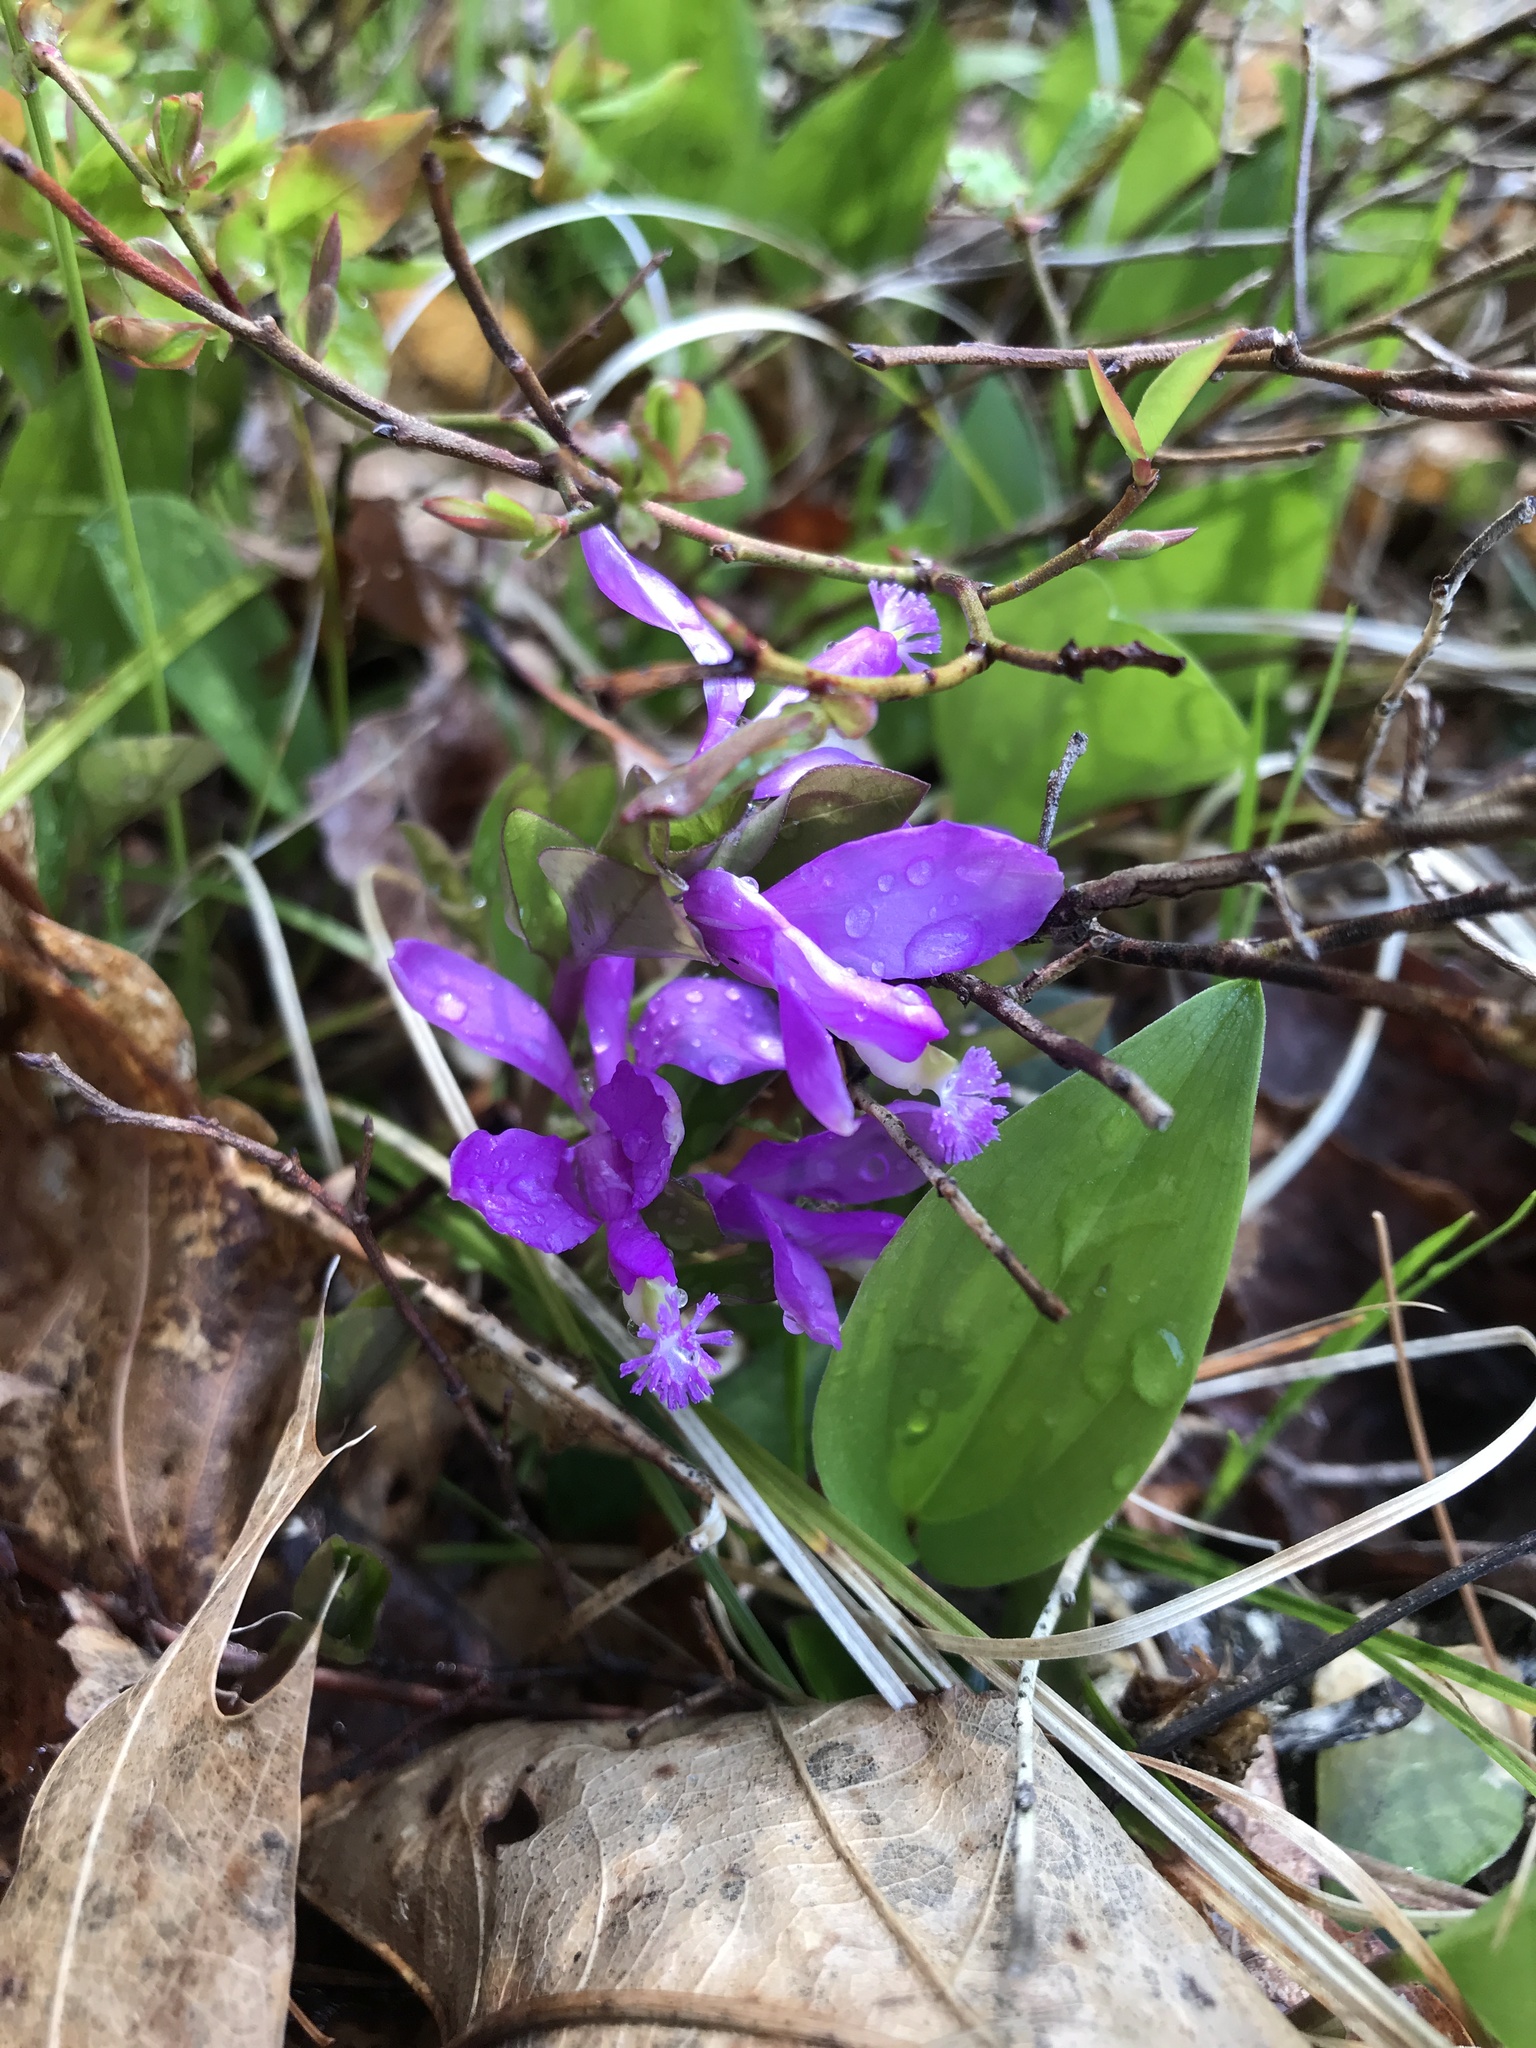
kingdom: Plantae
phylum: Tracheophyta
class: Magnoliopsida
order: Fabales
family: Polygalaceae
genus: Polygaloides
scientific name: Polygaloides paucifolia
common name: Bird-on-the-wing
